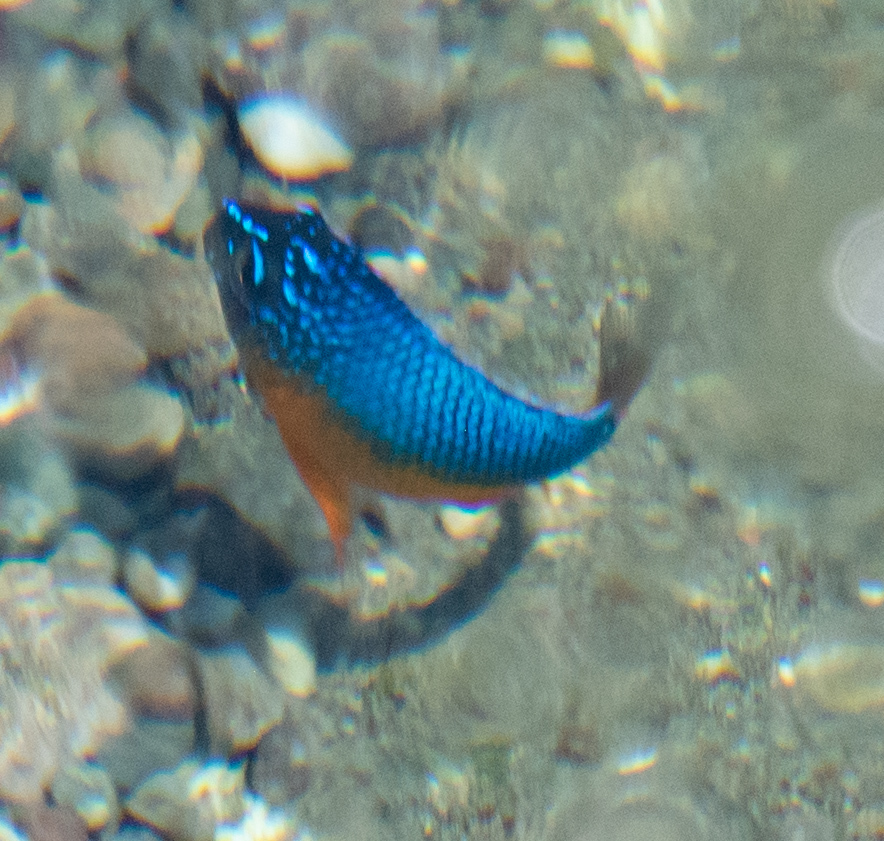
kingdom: Animalia
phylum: Chordata
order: Perciformes
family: Pomacentridae
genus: Microspathodon
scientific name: Microspathodon bairdii
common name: Bumphead damselfish
